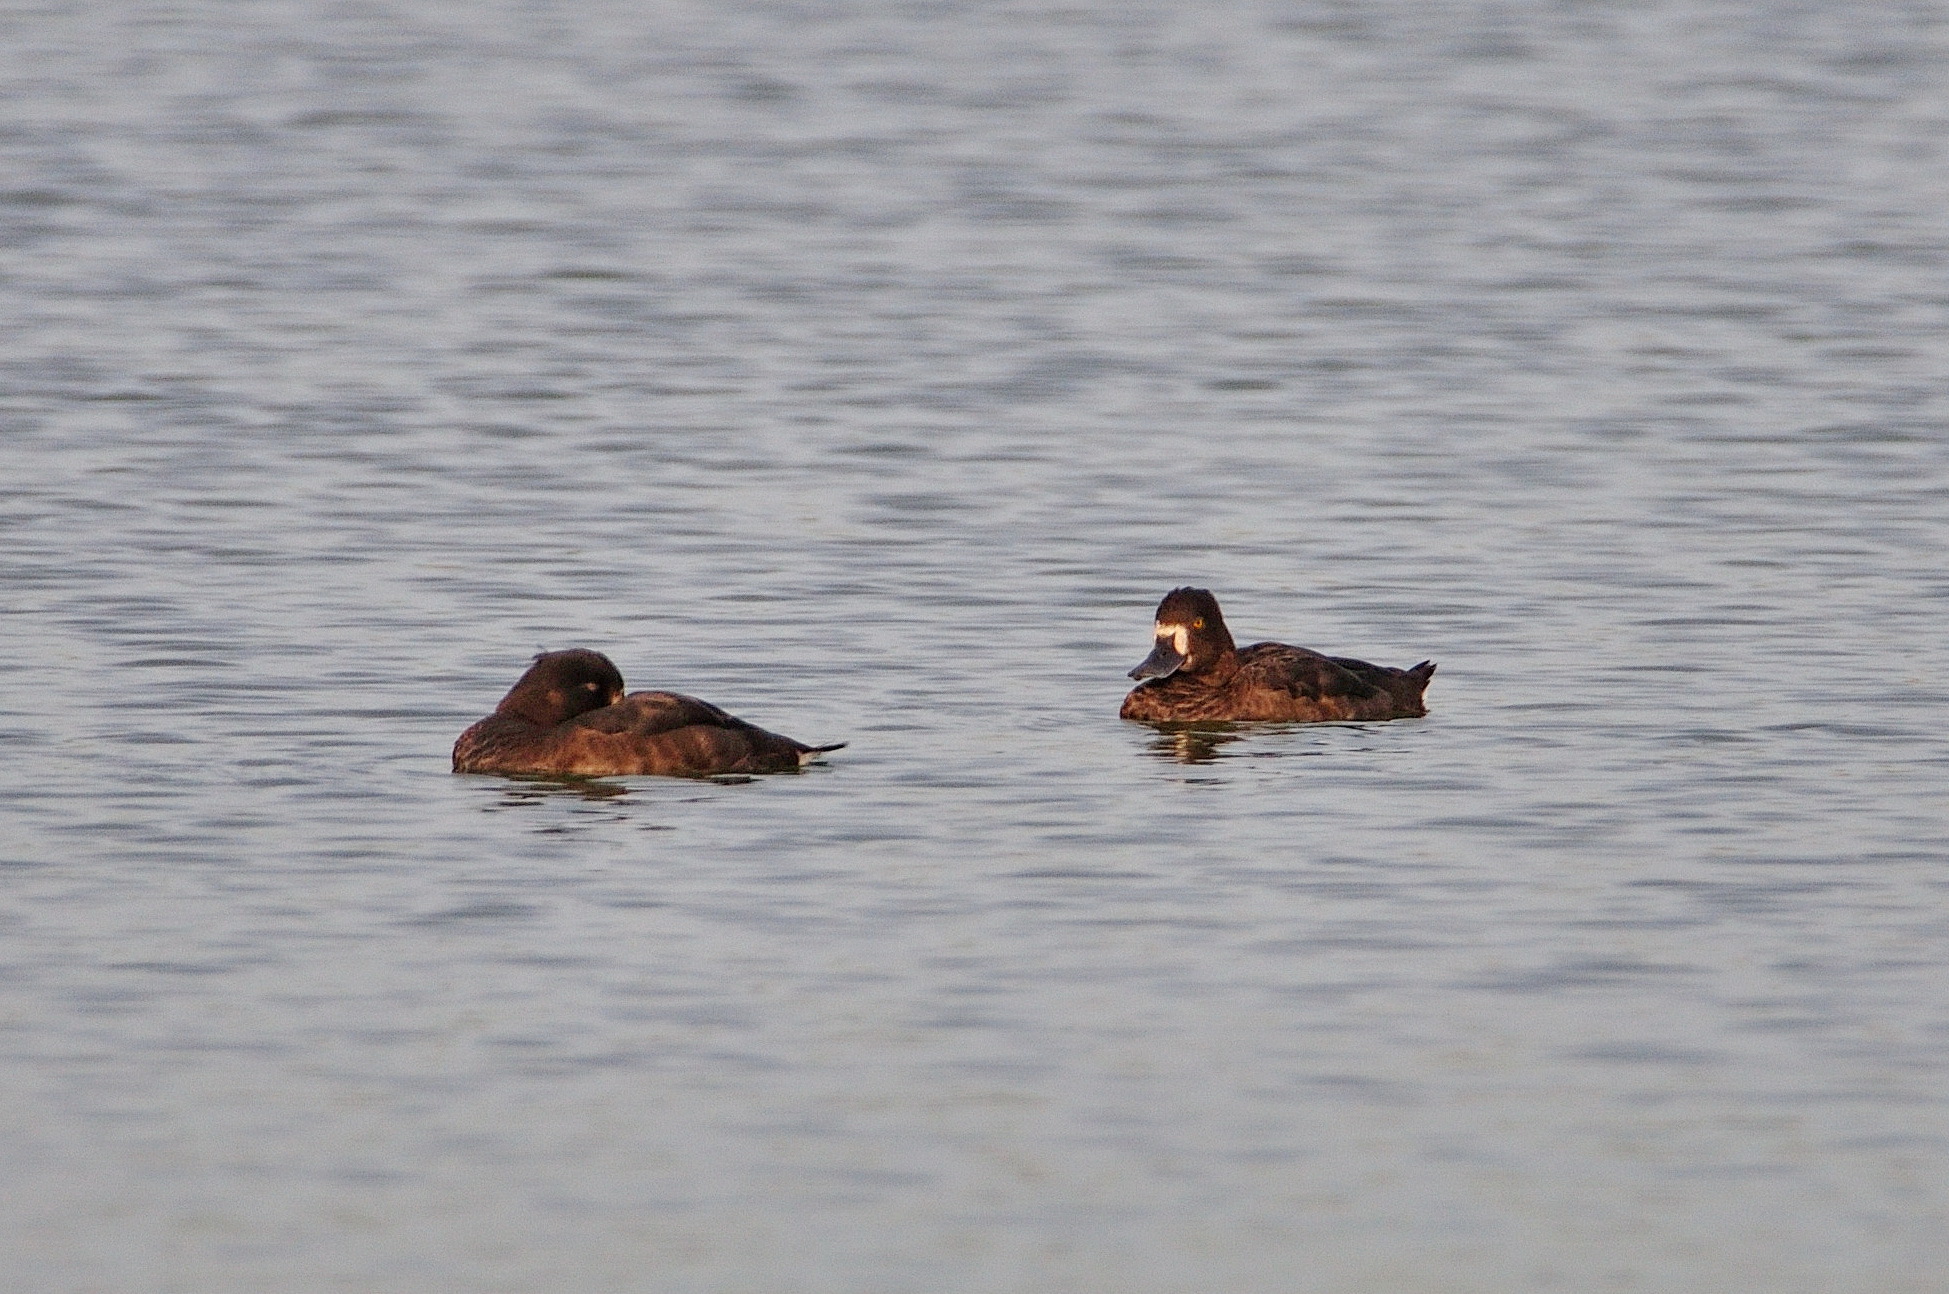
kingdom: Animalia
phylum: Chordata
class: Aves
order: Anseriformes
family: Anatidae
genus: Aythya
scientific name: Aythya marila
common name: Greater scaup
